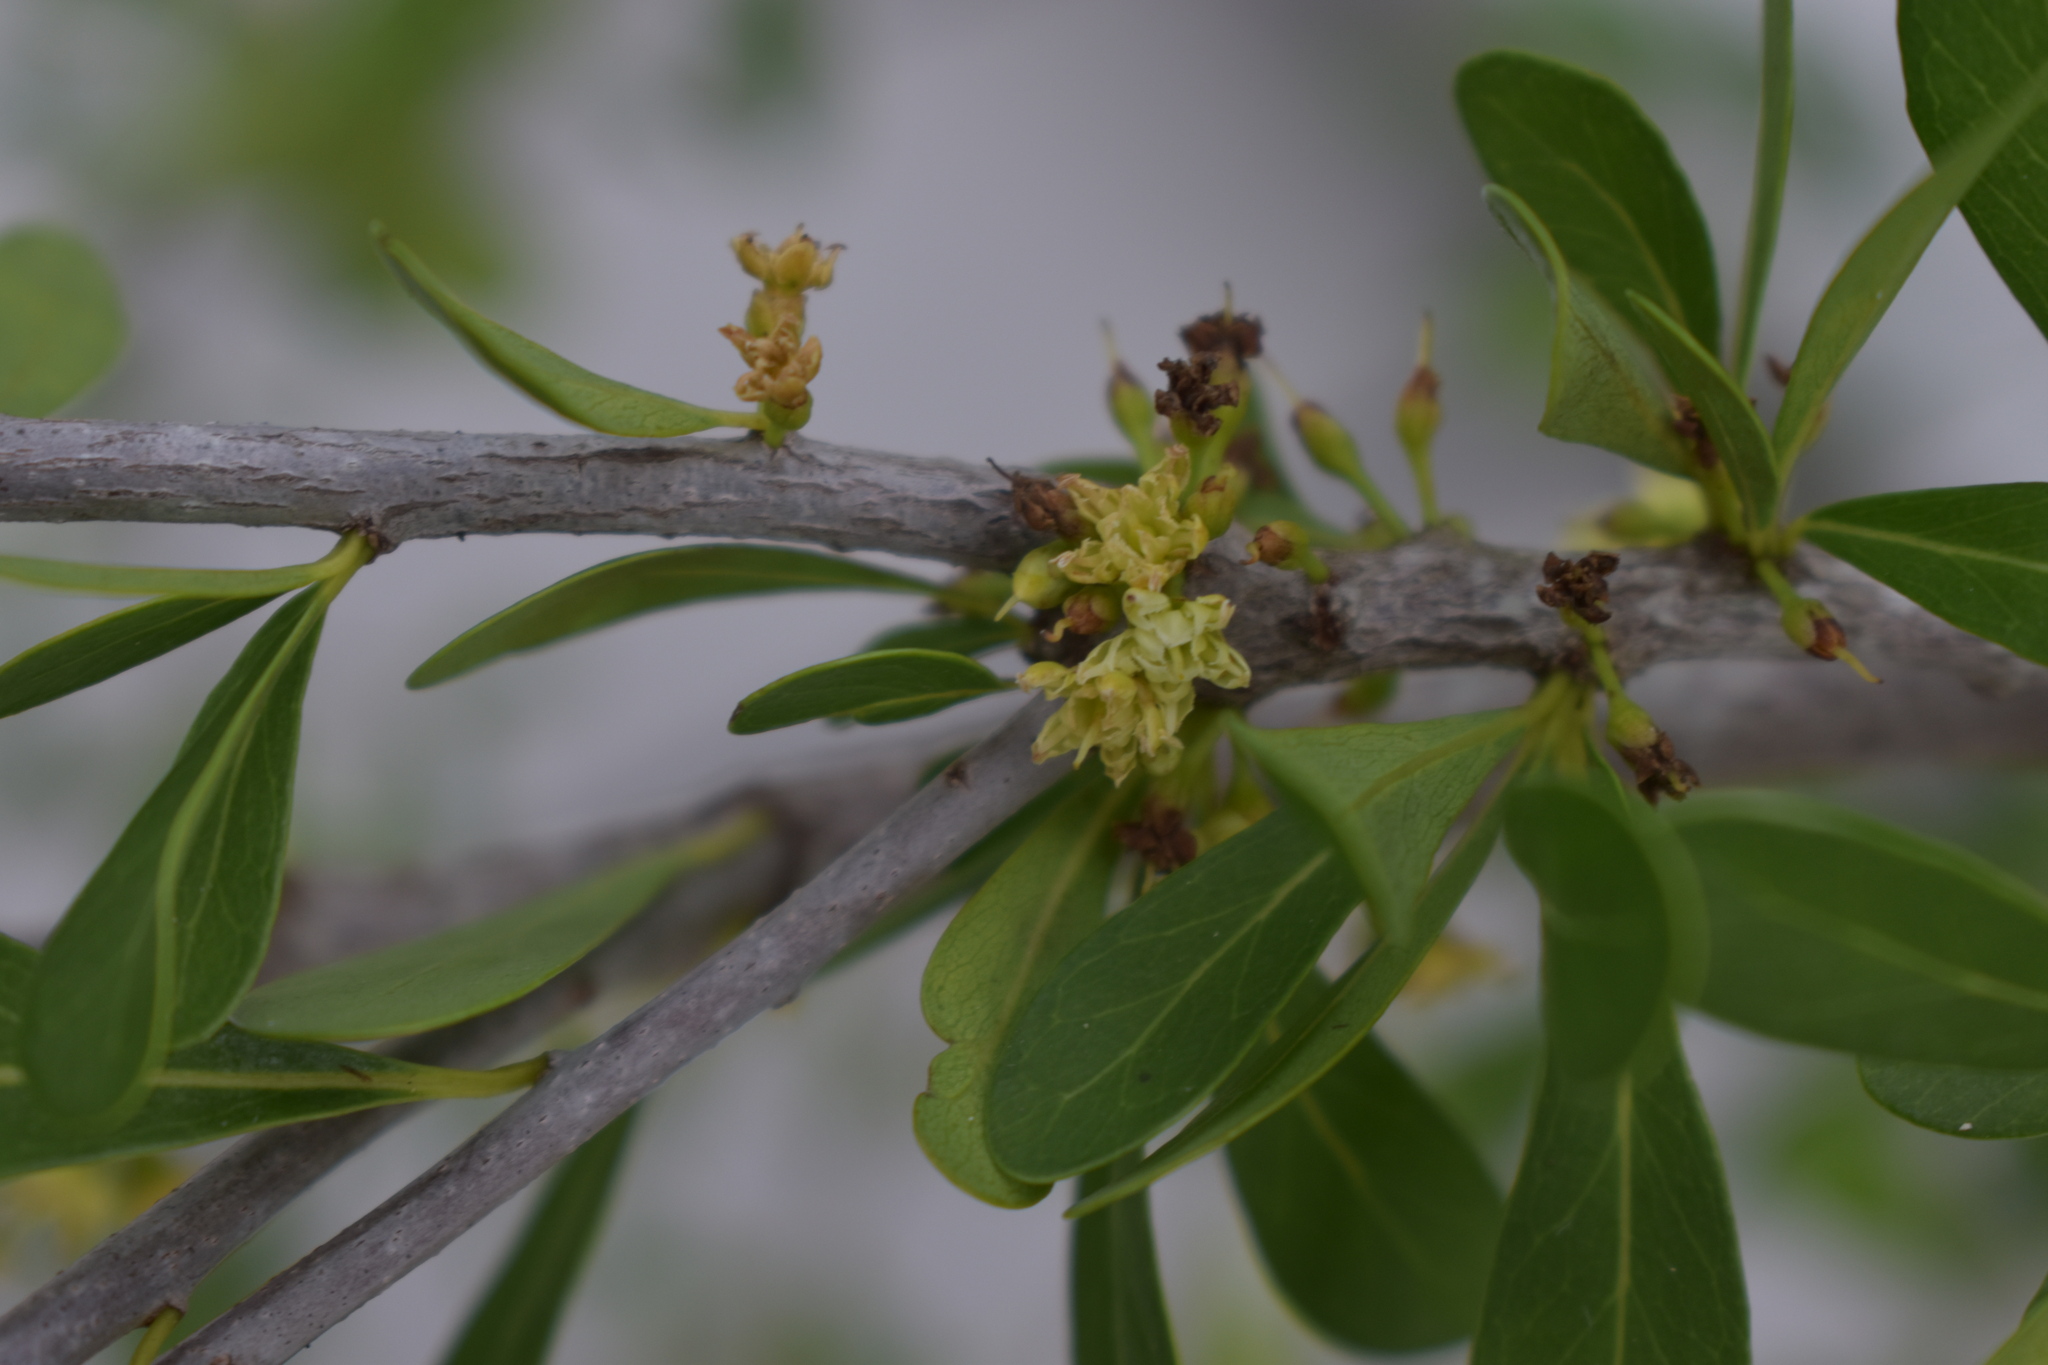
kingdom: Plantae
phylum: Tracheophyta
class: Magnoliopsida
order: Ericales
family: Sapotaceae
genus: Sideroxylon
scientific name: Sideroxylon celastrinum
